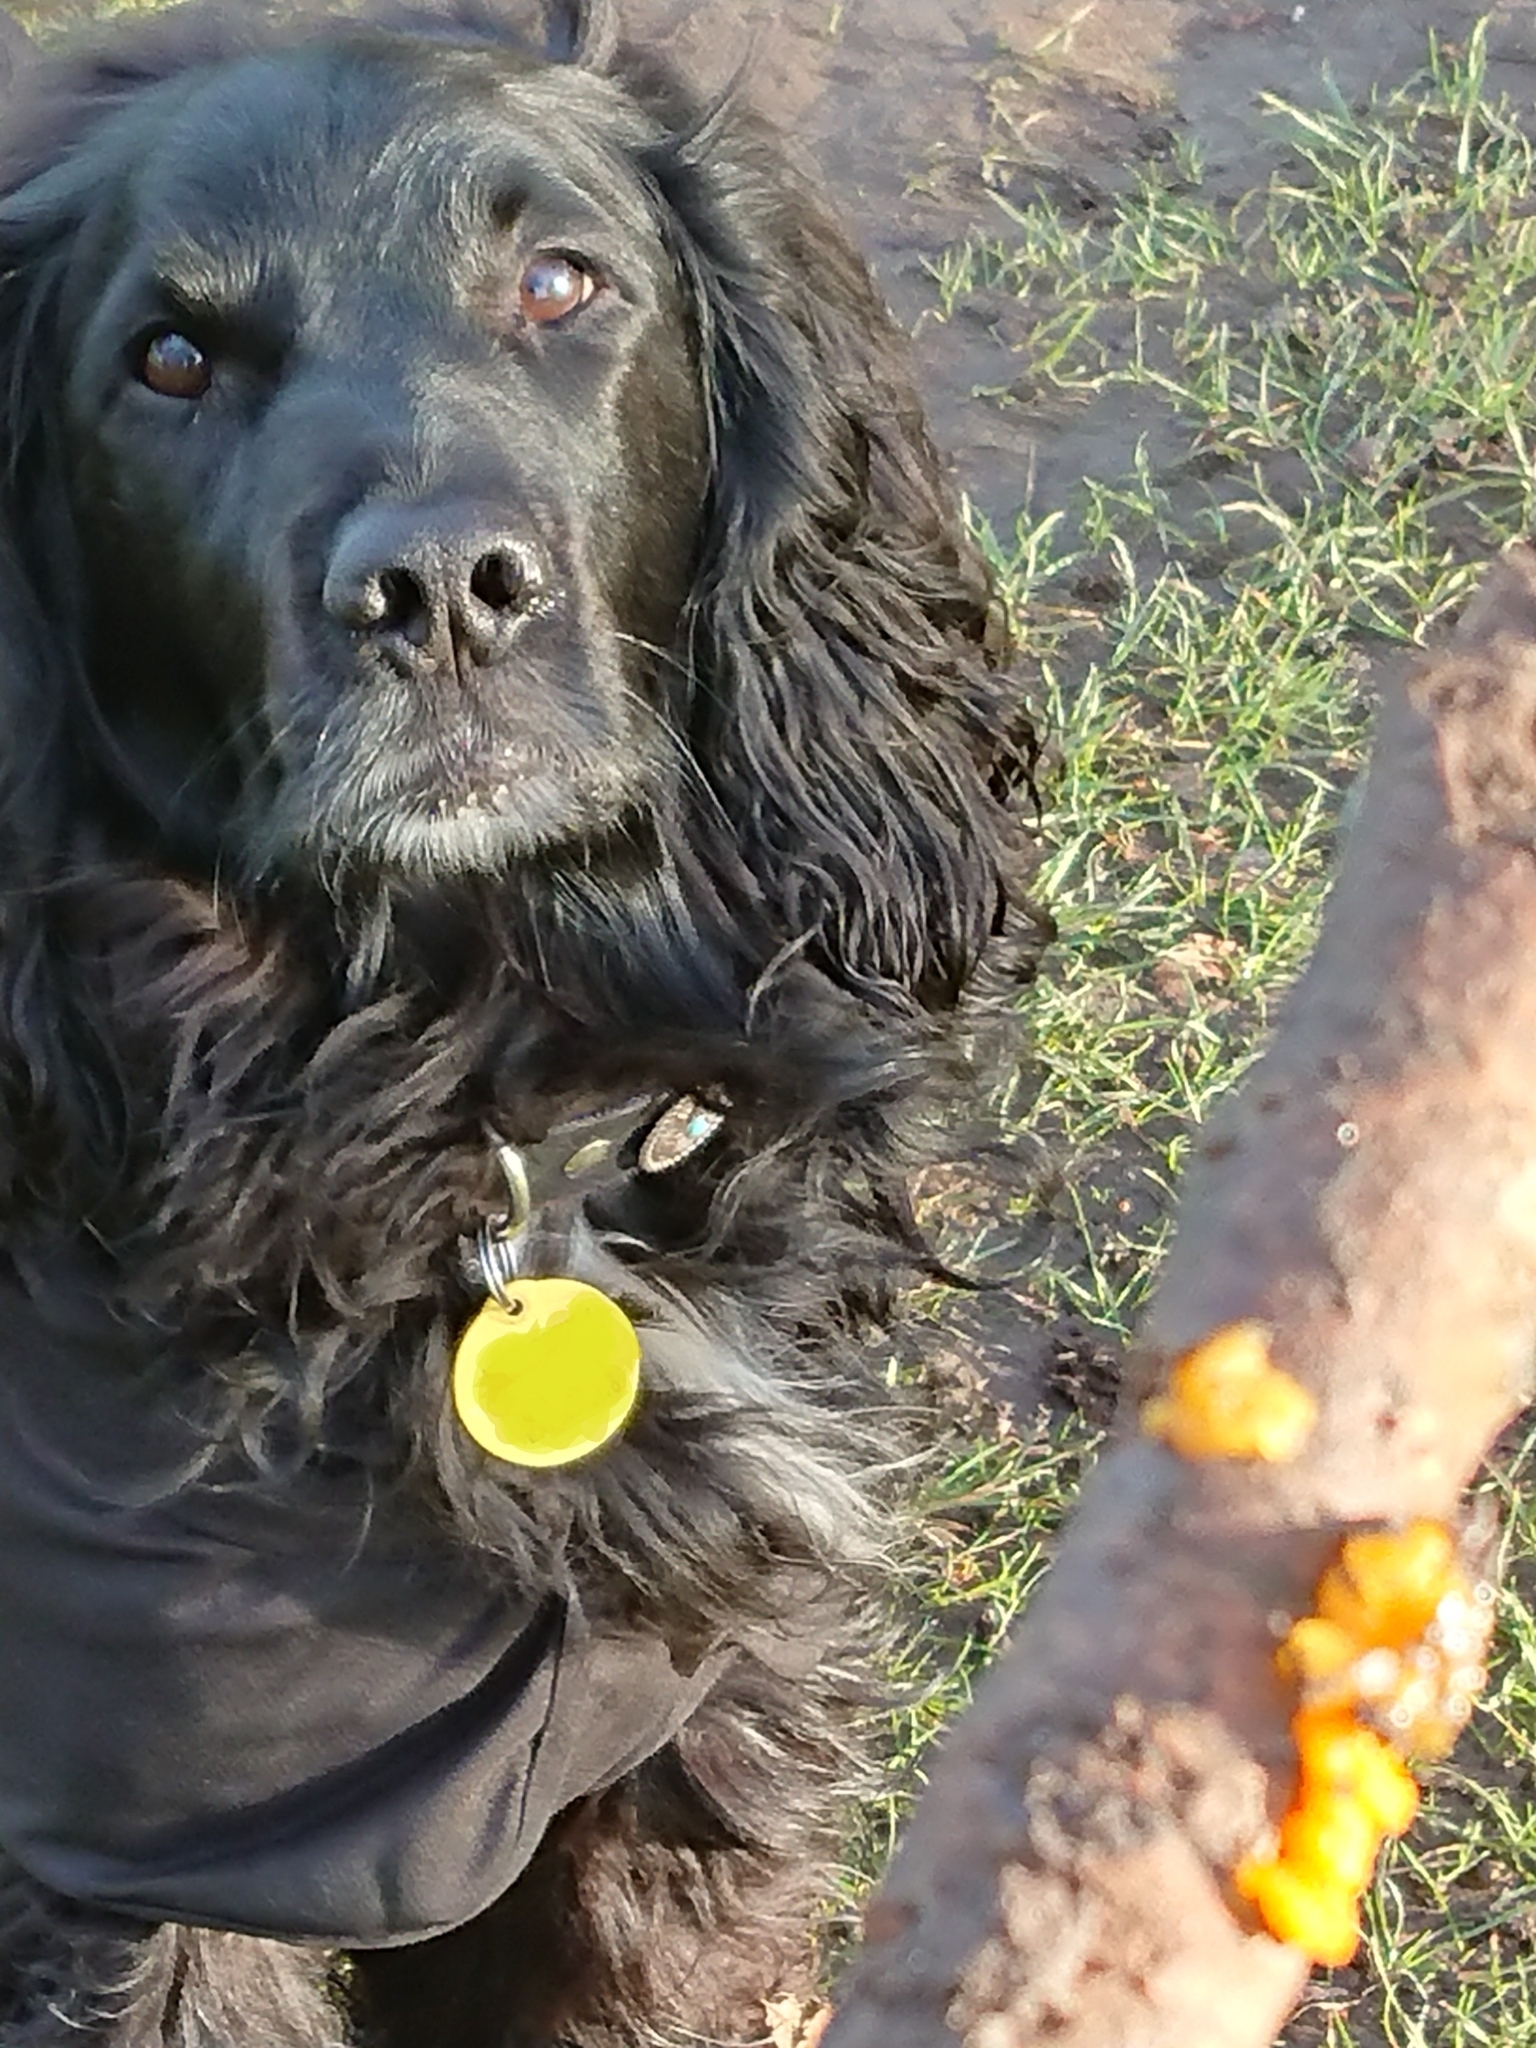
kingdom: Fungi
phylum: Basidiomycota
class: Tremellomycetes
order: Tremellales
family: Tremellaceae
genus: Tremella
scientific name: Tremella mesenterica
